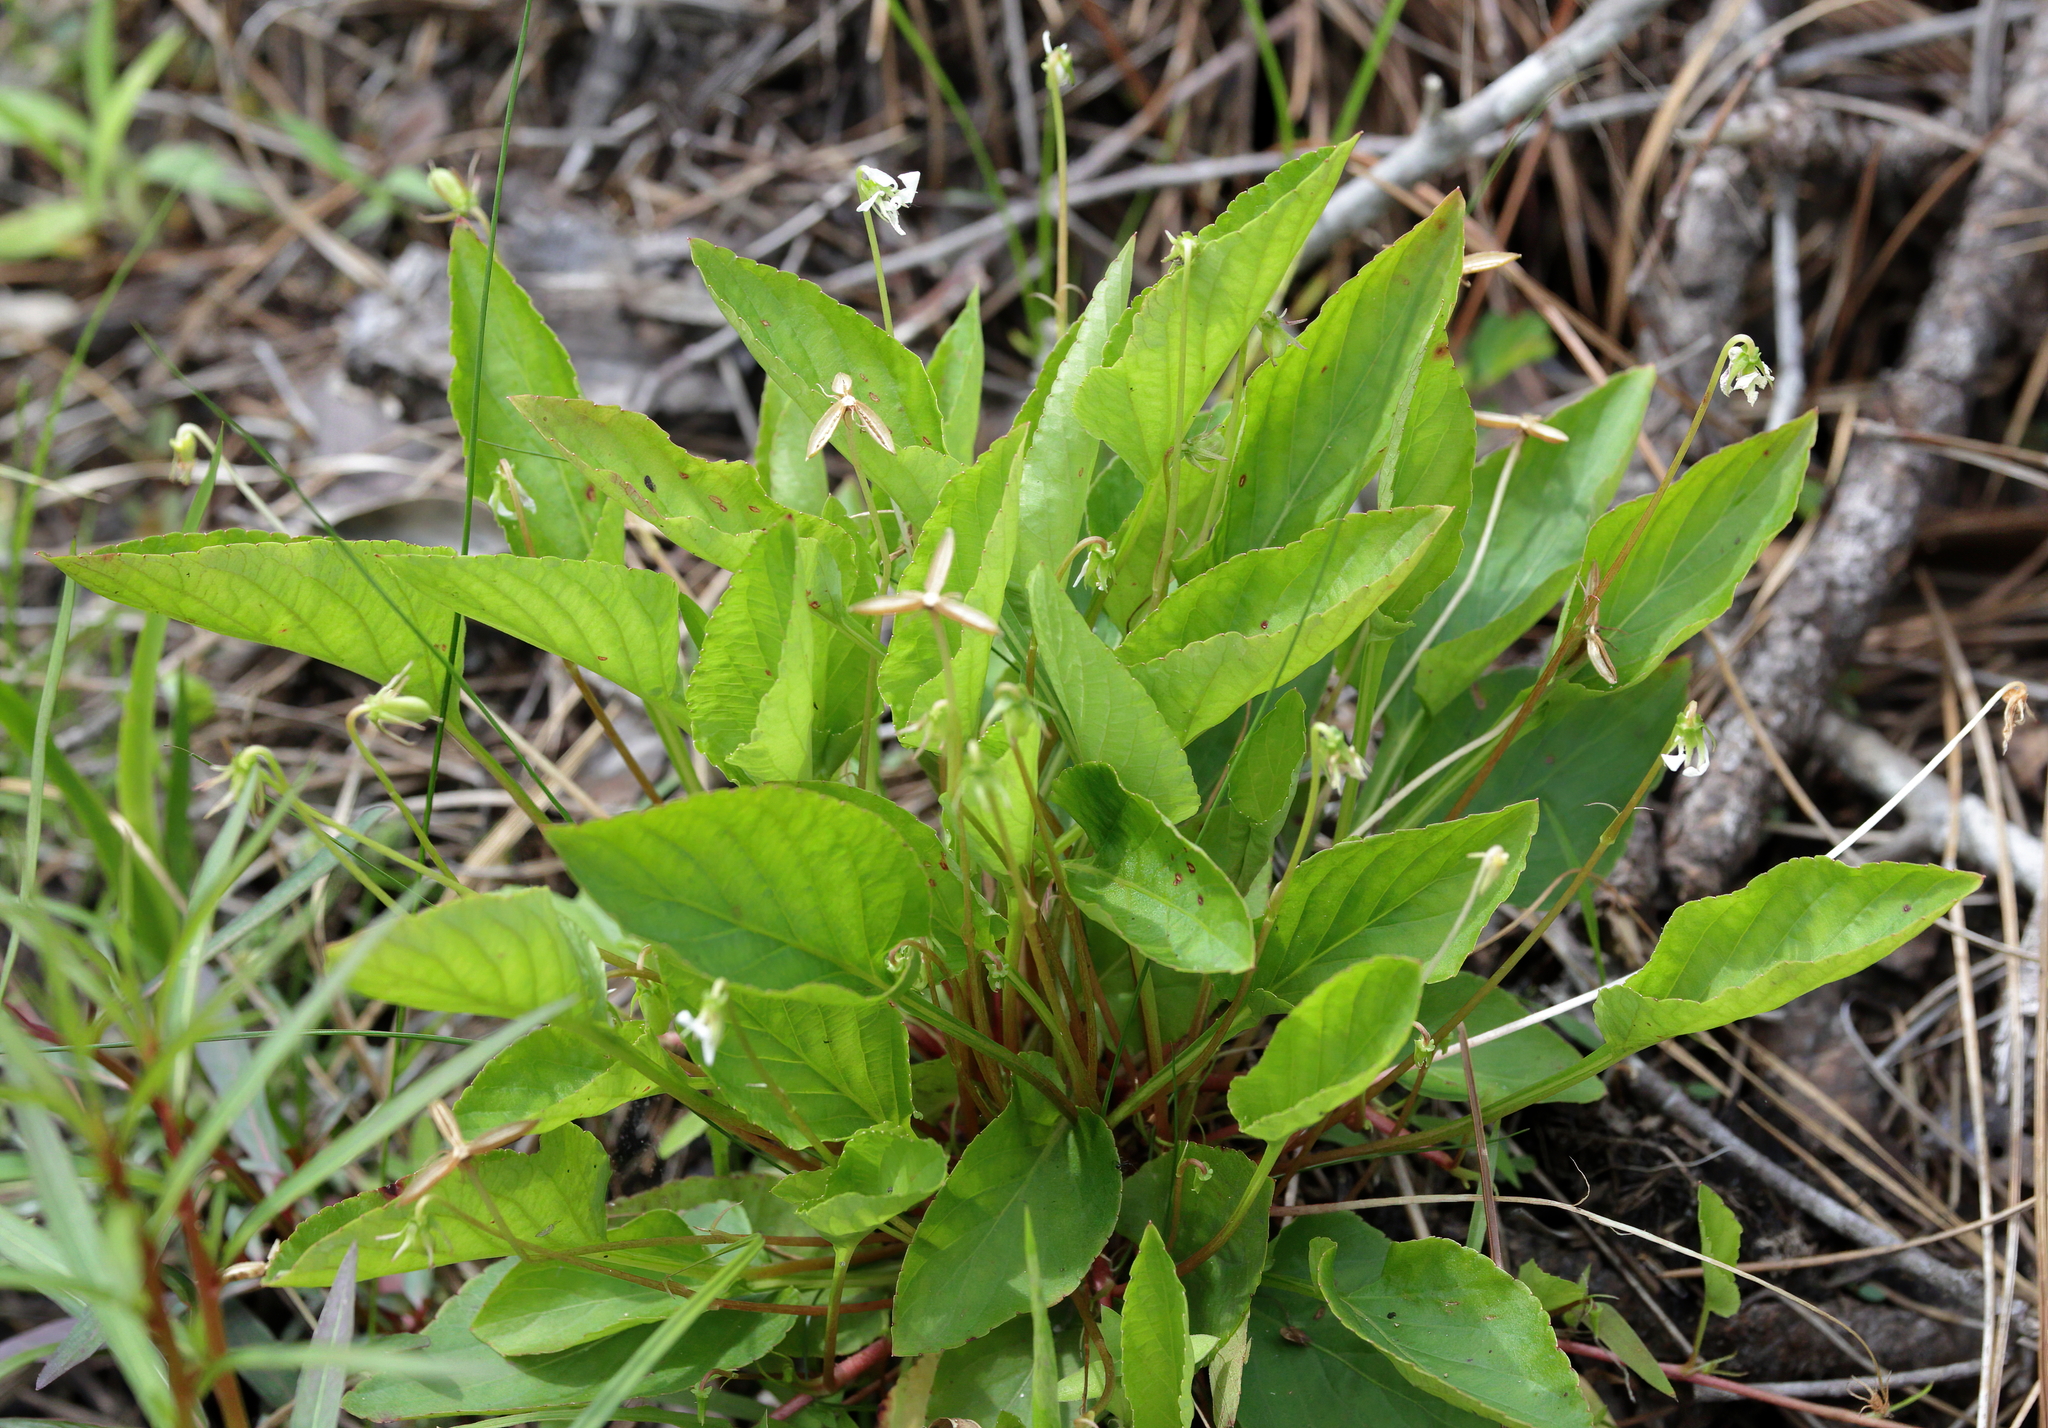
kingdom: Plantae
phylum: Tracheophyta
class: Magnoliopsida
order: Malpighiales
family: Violaceae
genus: Viola
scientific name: Viola primulifolia
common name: Primrose-leaf violet
